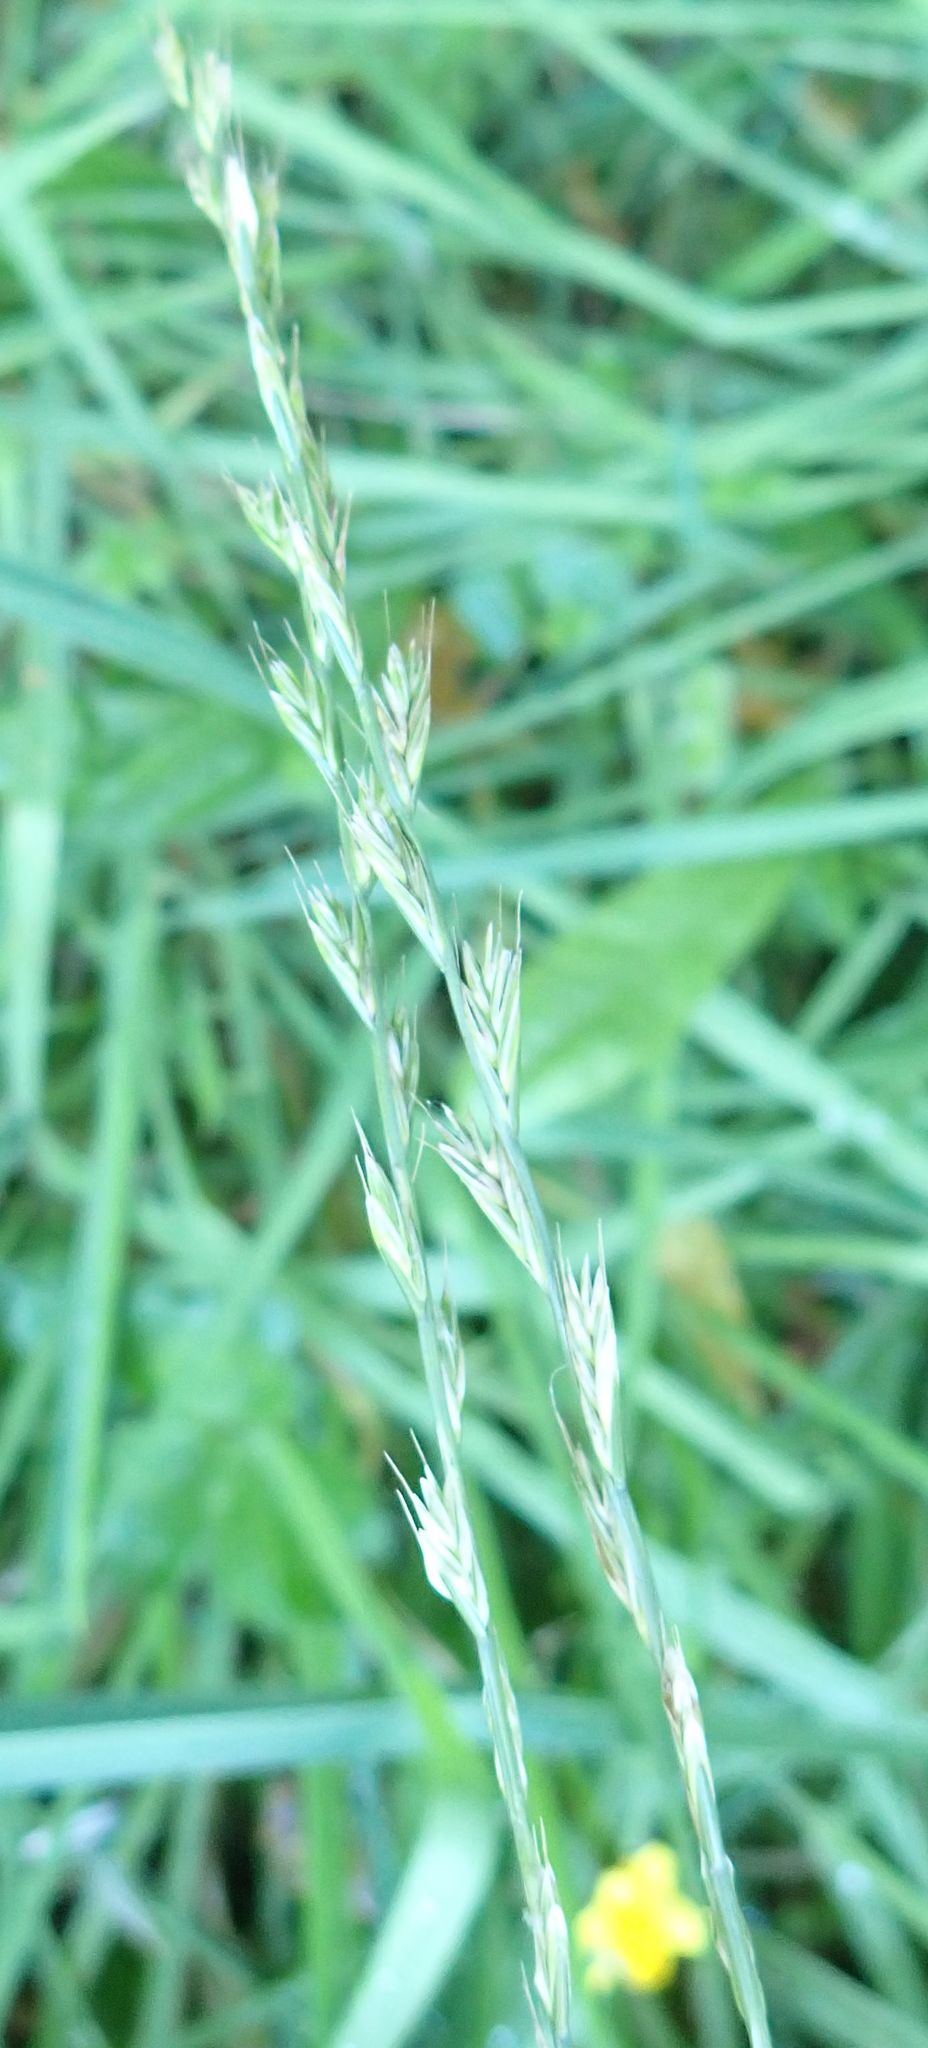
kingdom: Plantae
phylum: Tracheophyta
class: Liliopsida
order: Poales
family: Poaceae
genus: Lolium
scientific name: Lolium perenne
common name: Perennial ryegrass
